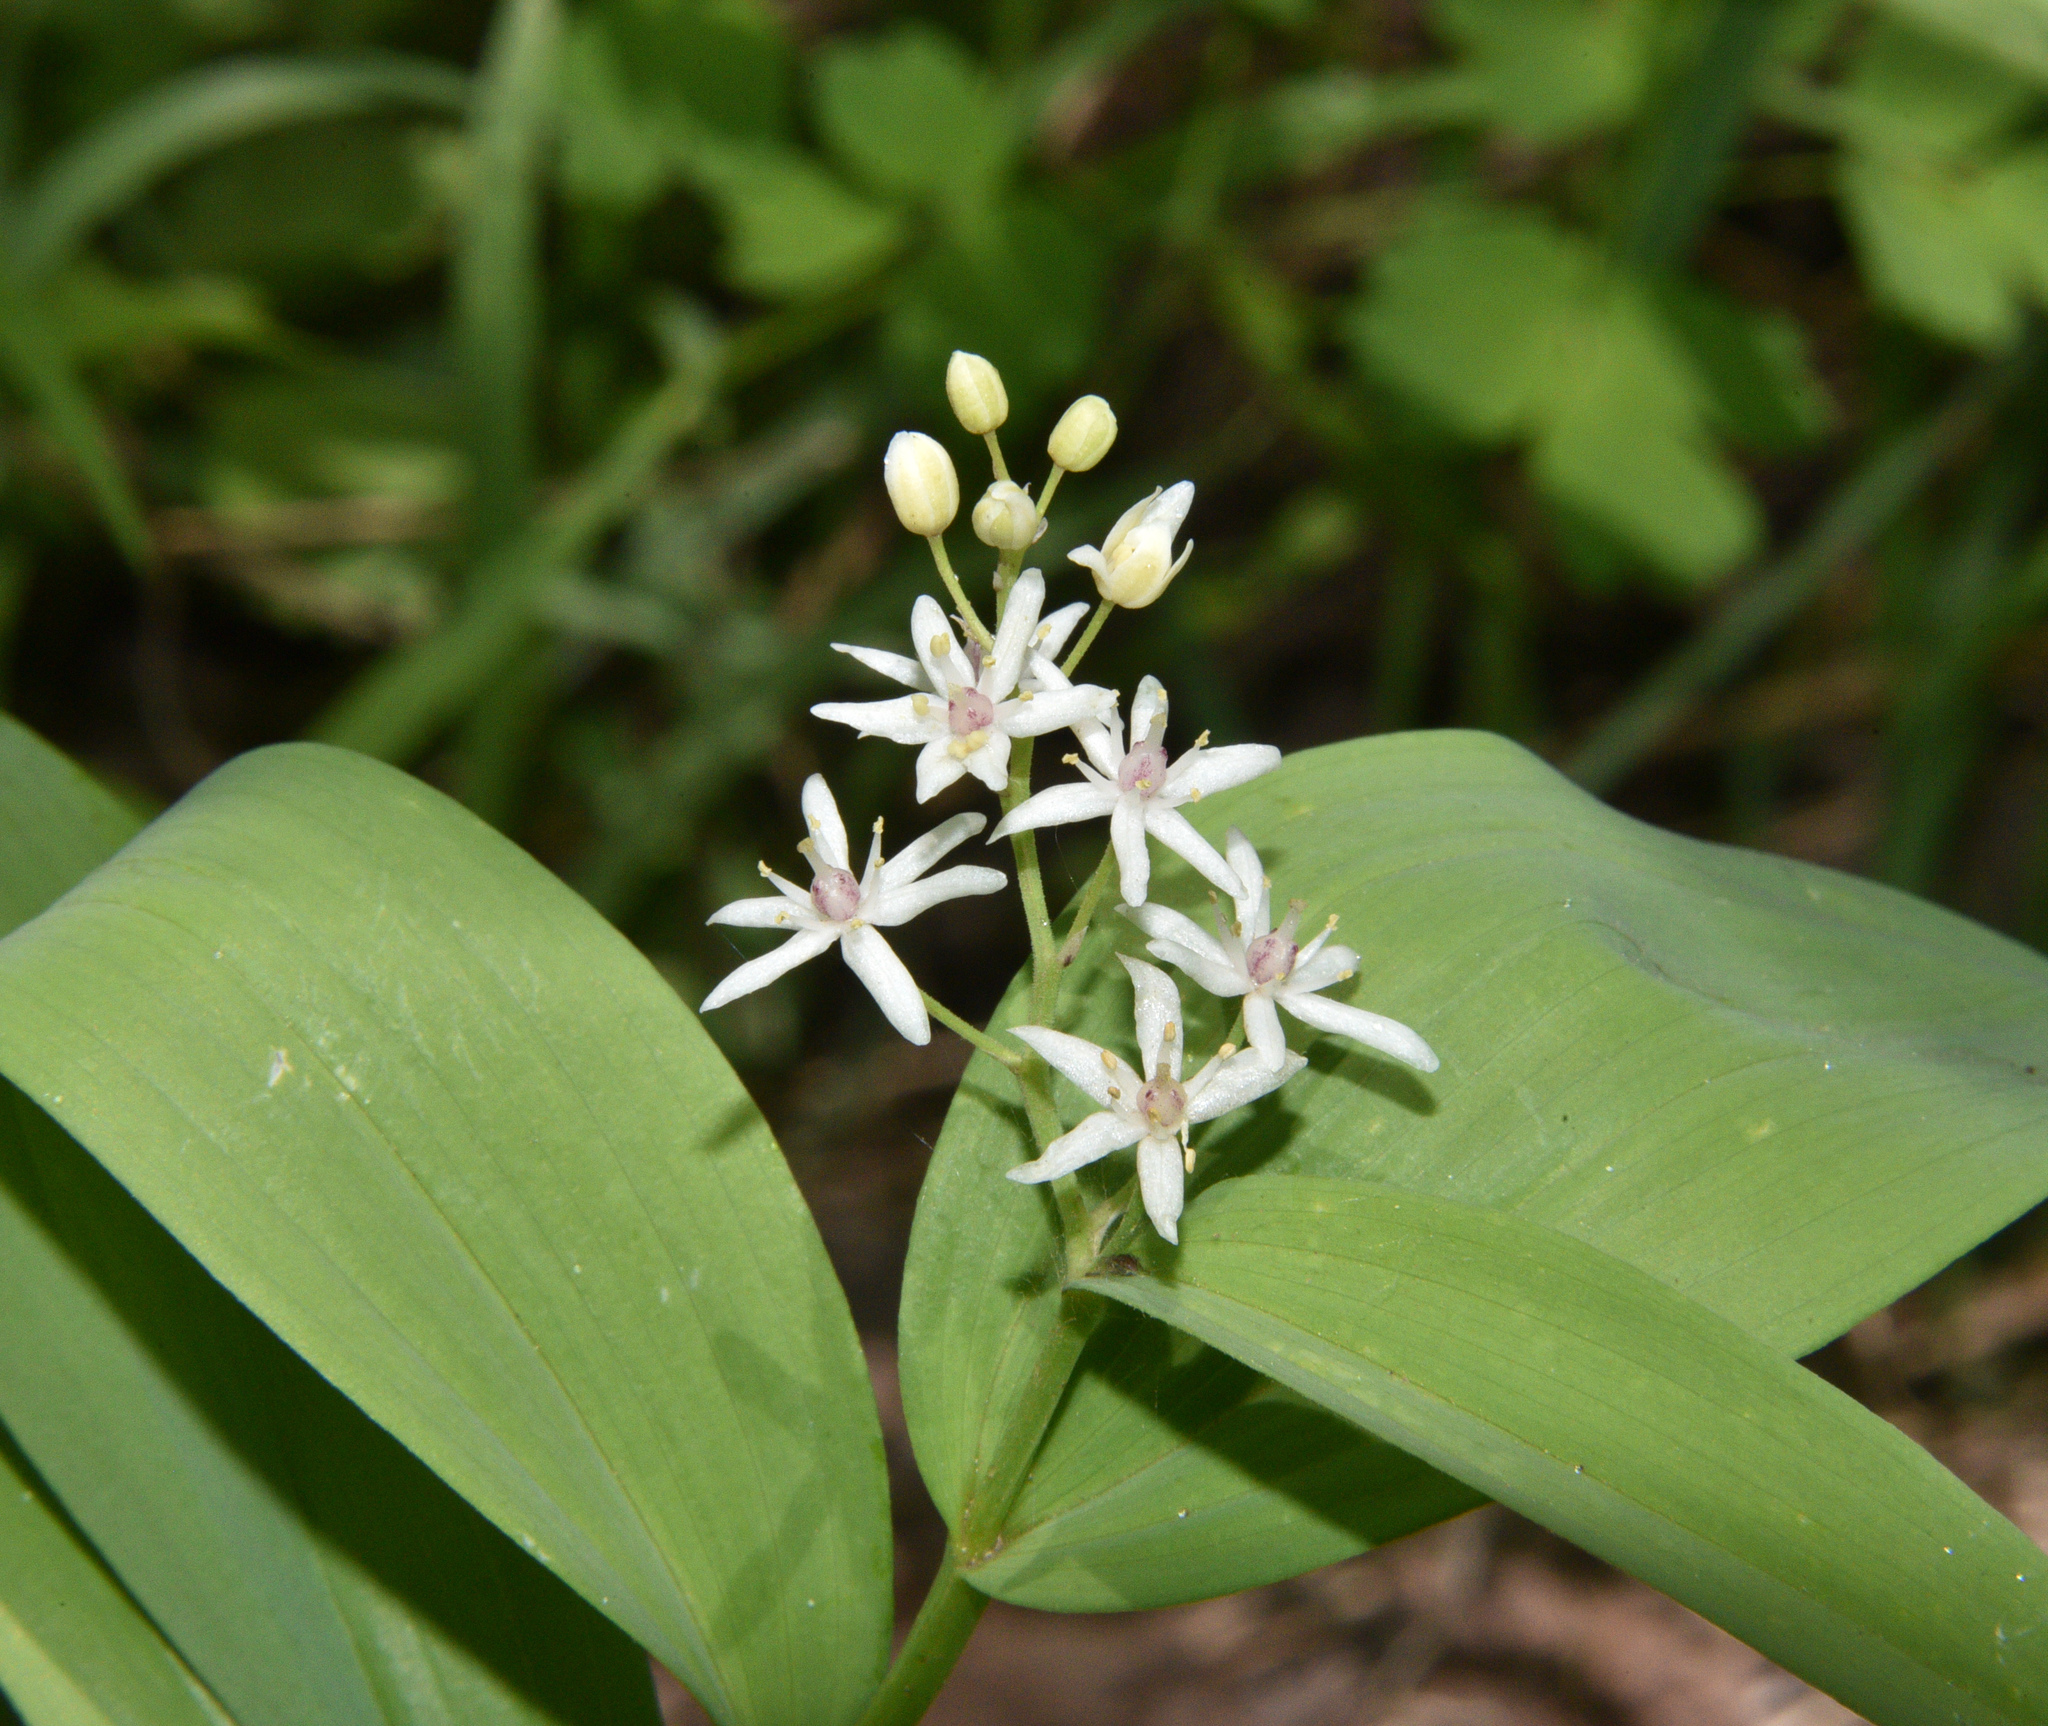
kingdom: Plantae
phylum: Tracheophyta
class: Liliopsida
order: Asparagales
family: Asparagaceae
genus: Maianthemum
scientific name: Maianthemum stellatum
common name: Little false solomon's seal
